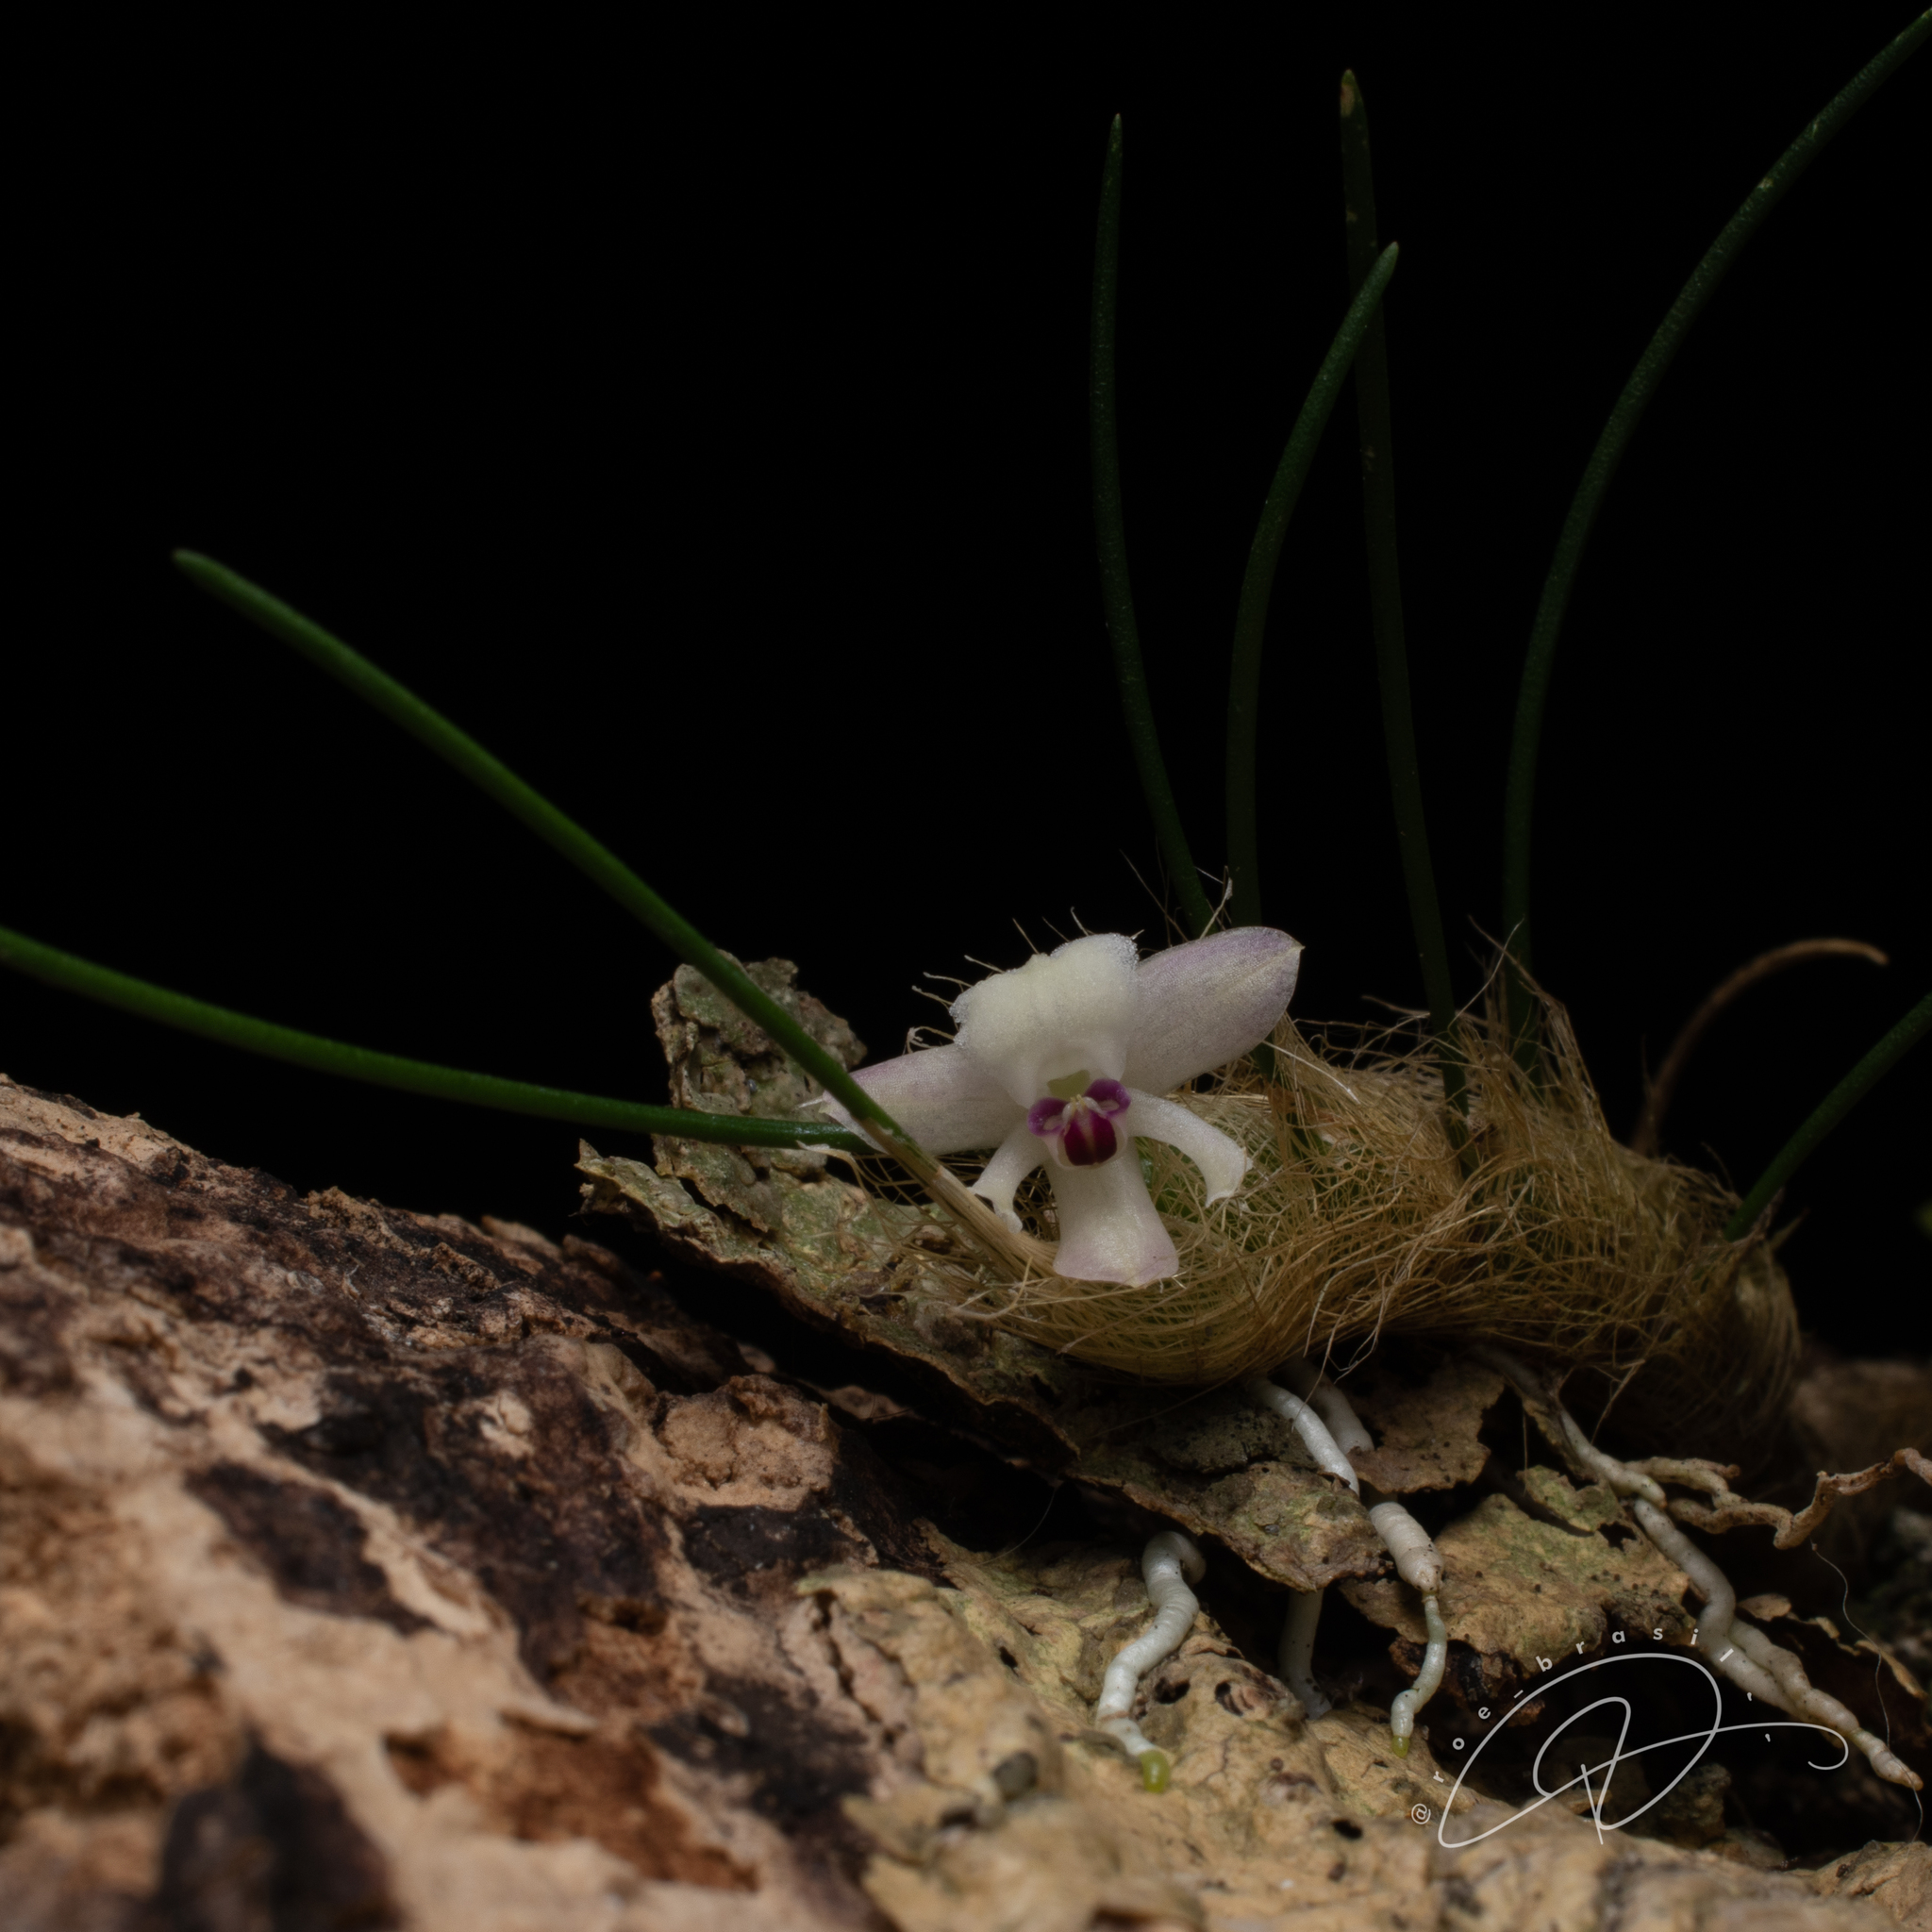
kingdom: Plantae
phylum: Tracheophyta
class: Liliopsida
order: Asparagales
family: Orchidaceae
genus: Isabelia
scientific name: Isabelia virginalis
